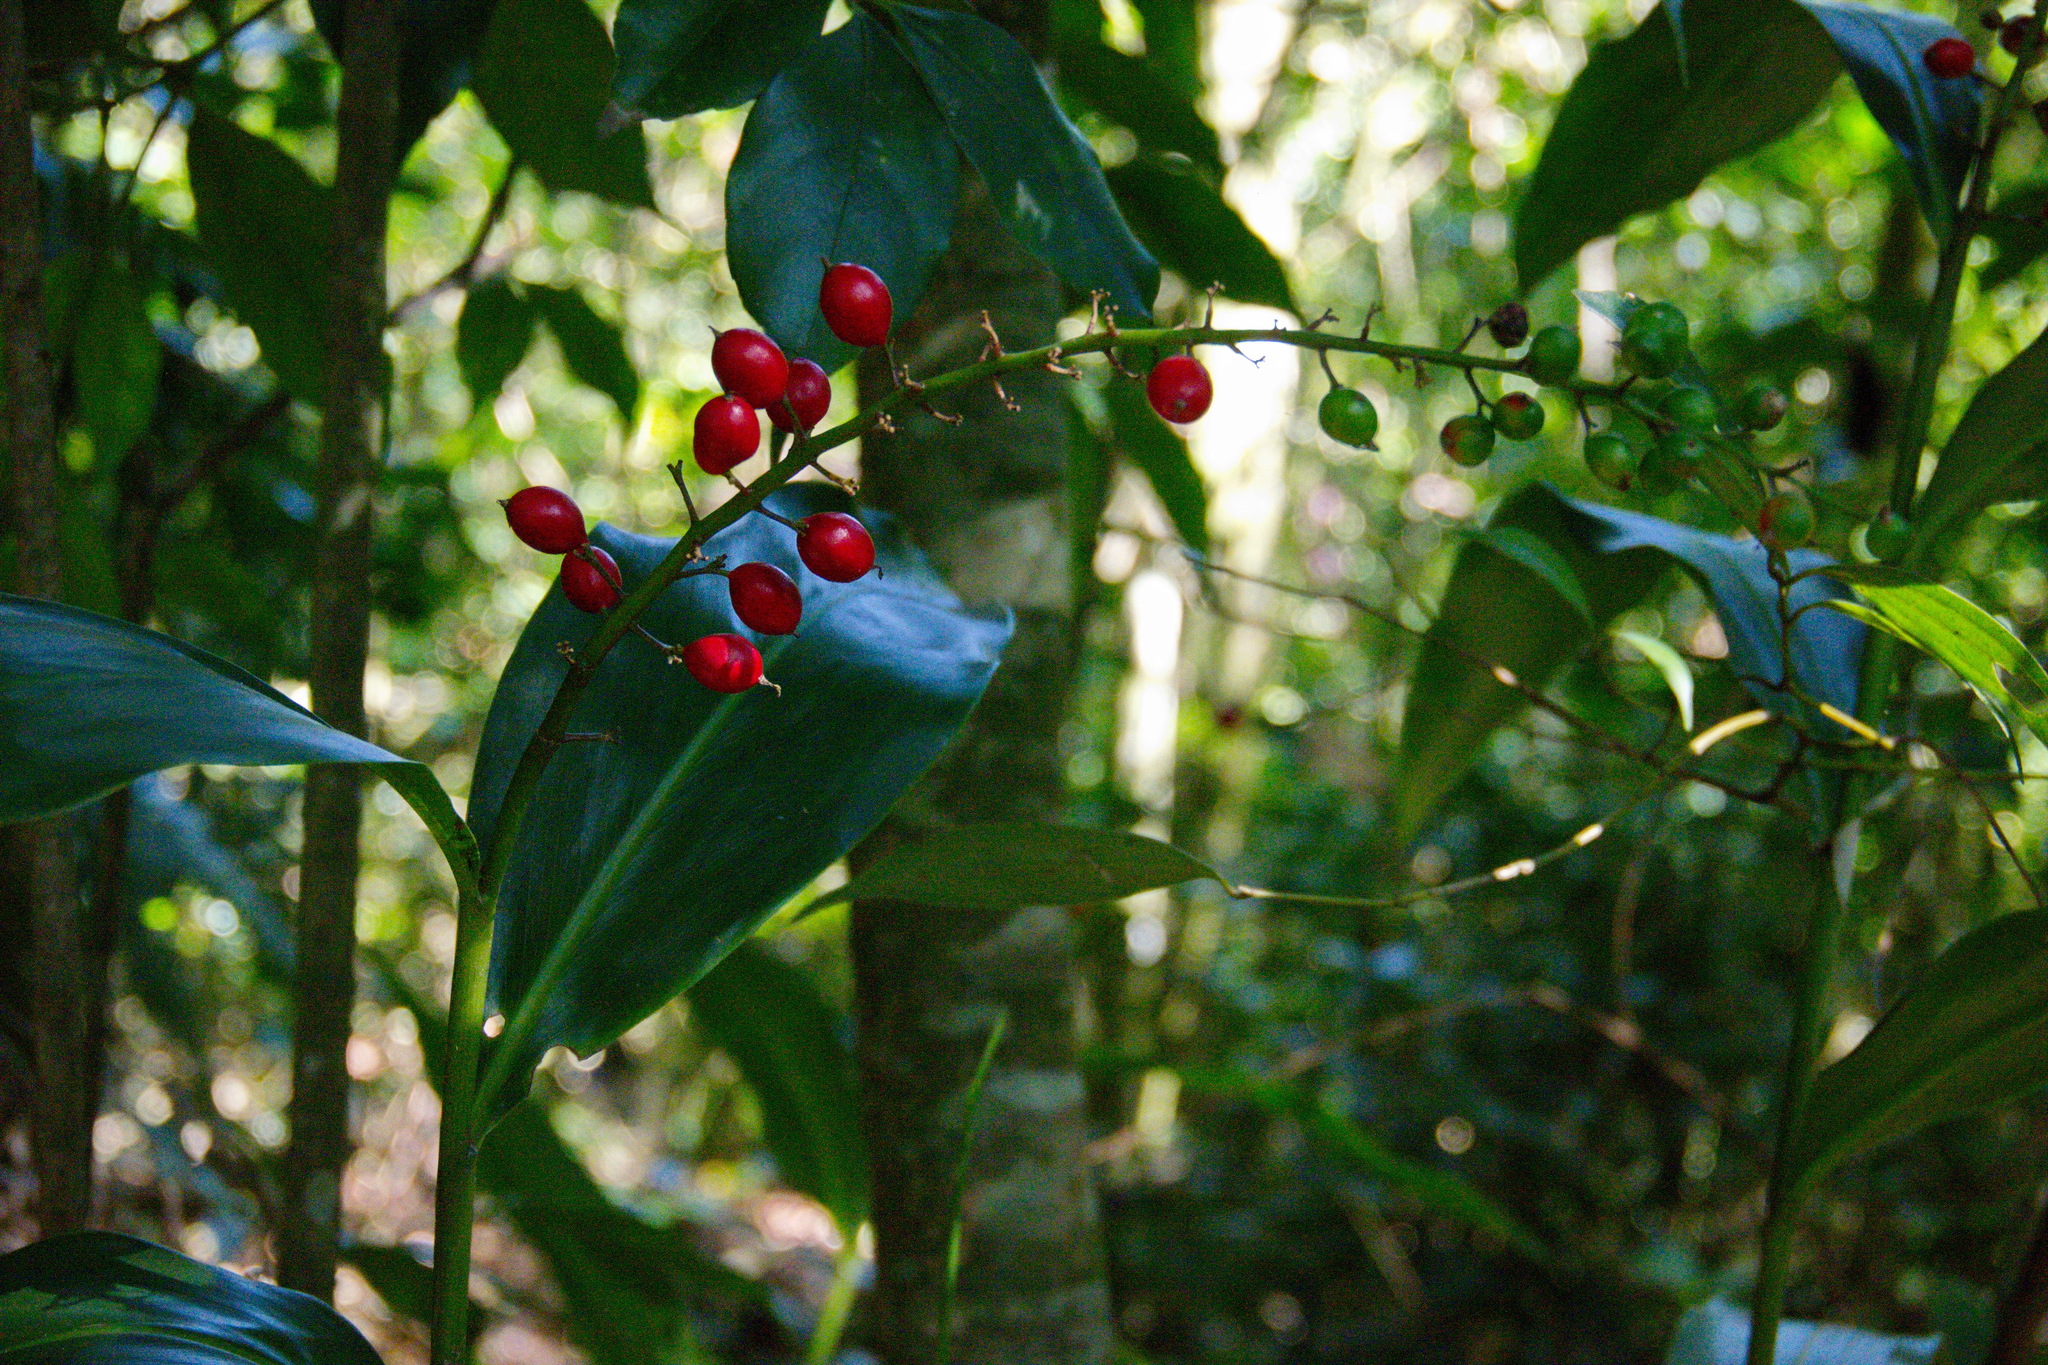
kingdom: Plantae
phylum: Tracheophyta
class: Liliopsida
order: Zingiberales
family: Zingiberaceae
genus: Alpinia
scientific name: Alpinia intermedia
